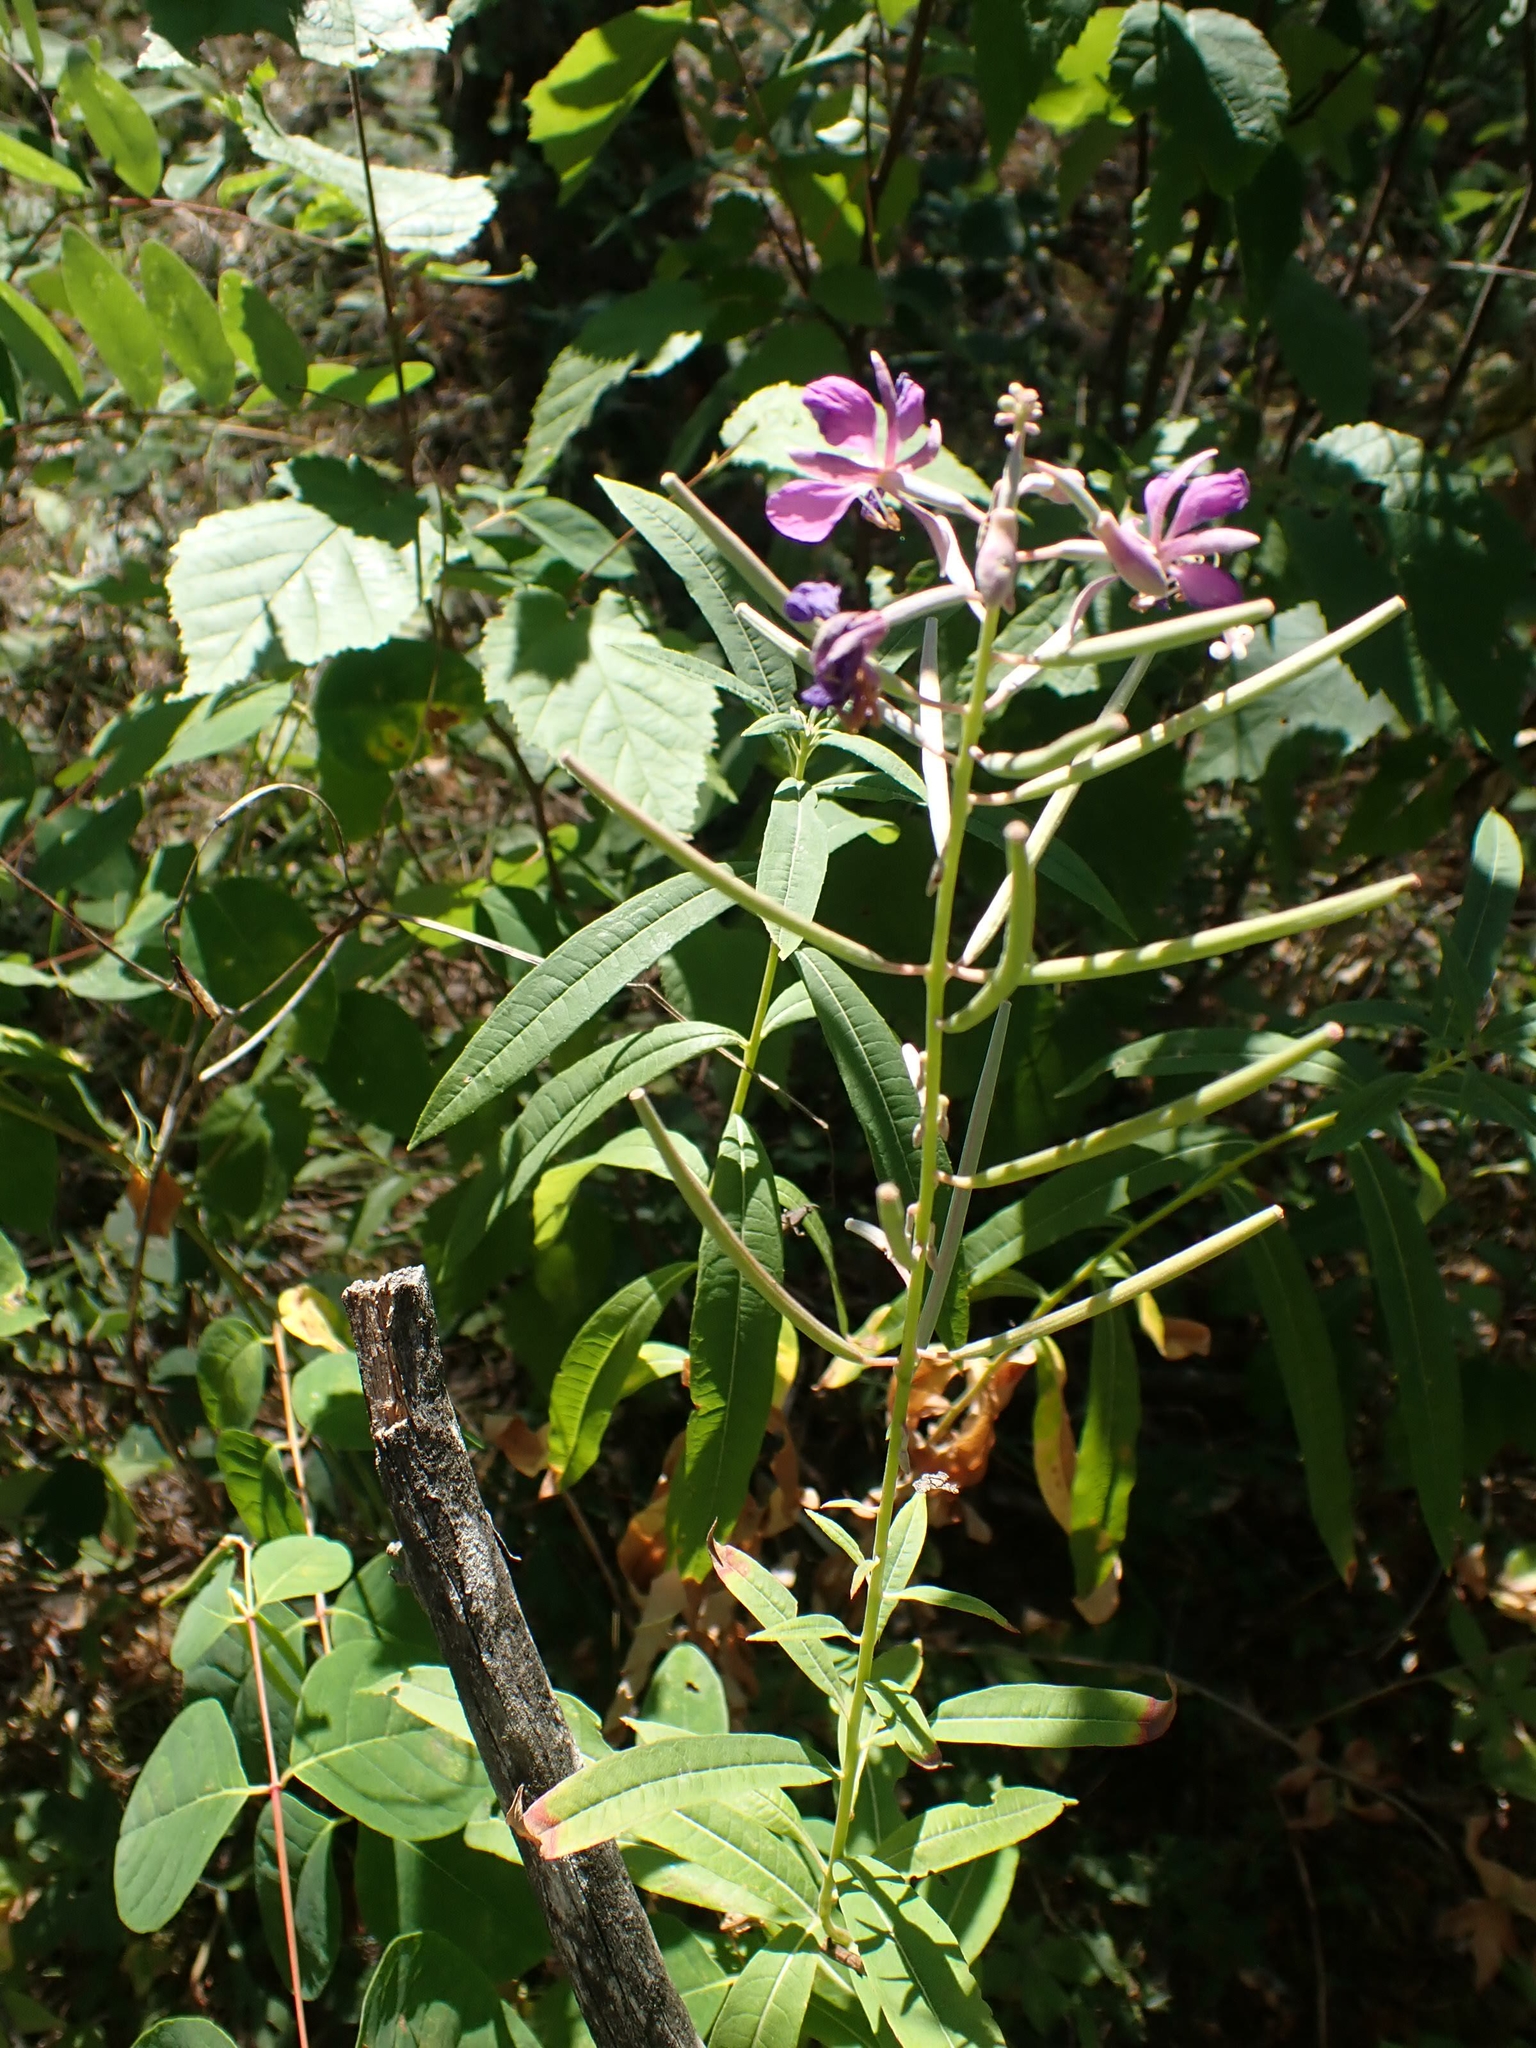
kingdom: Plantae
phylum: Tracheophyta
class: Magnoliopsida
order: Myrtales
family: Onagraceae
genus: Chamaenerion
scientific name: Chamaenerion angustifolium
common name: Fireweed
